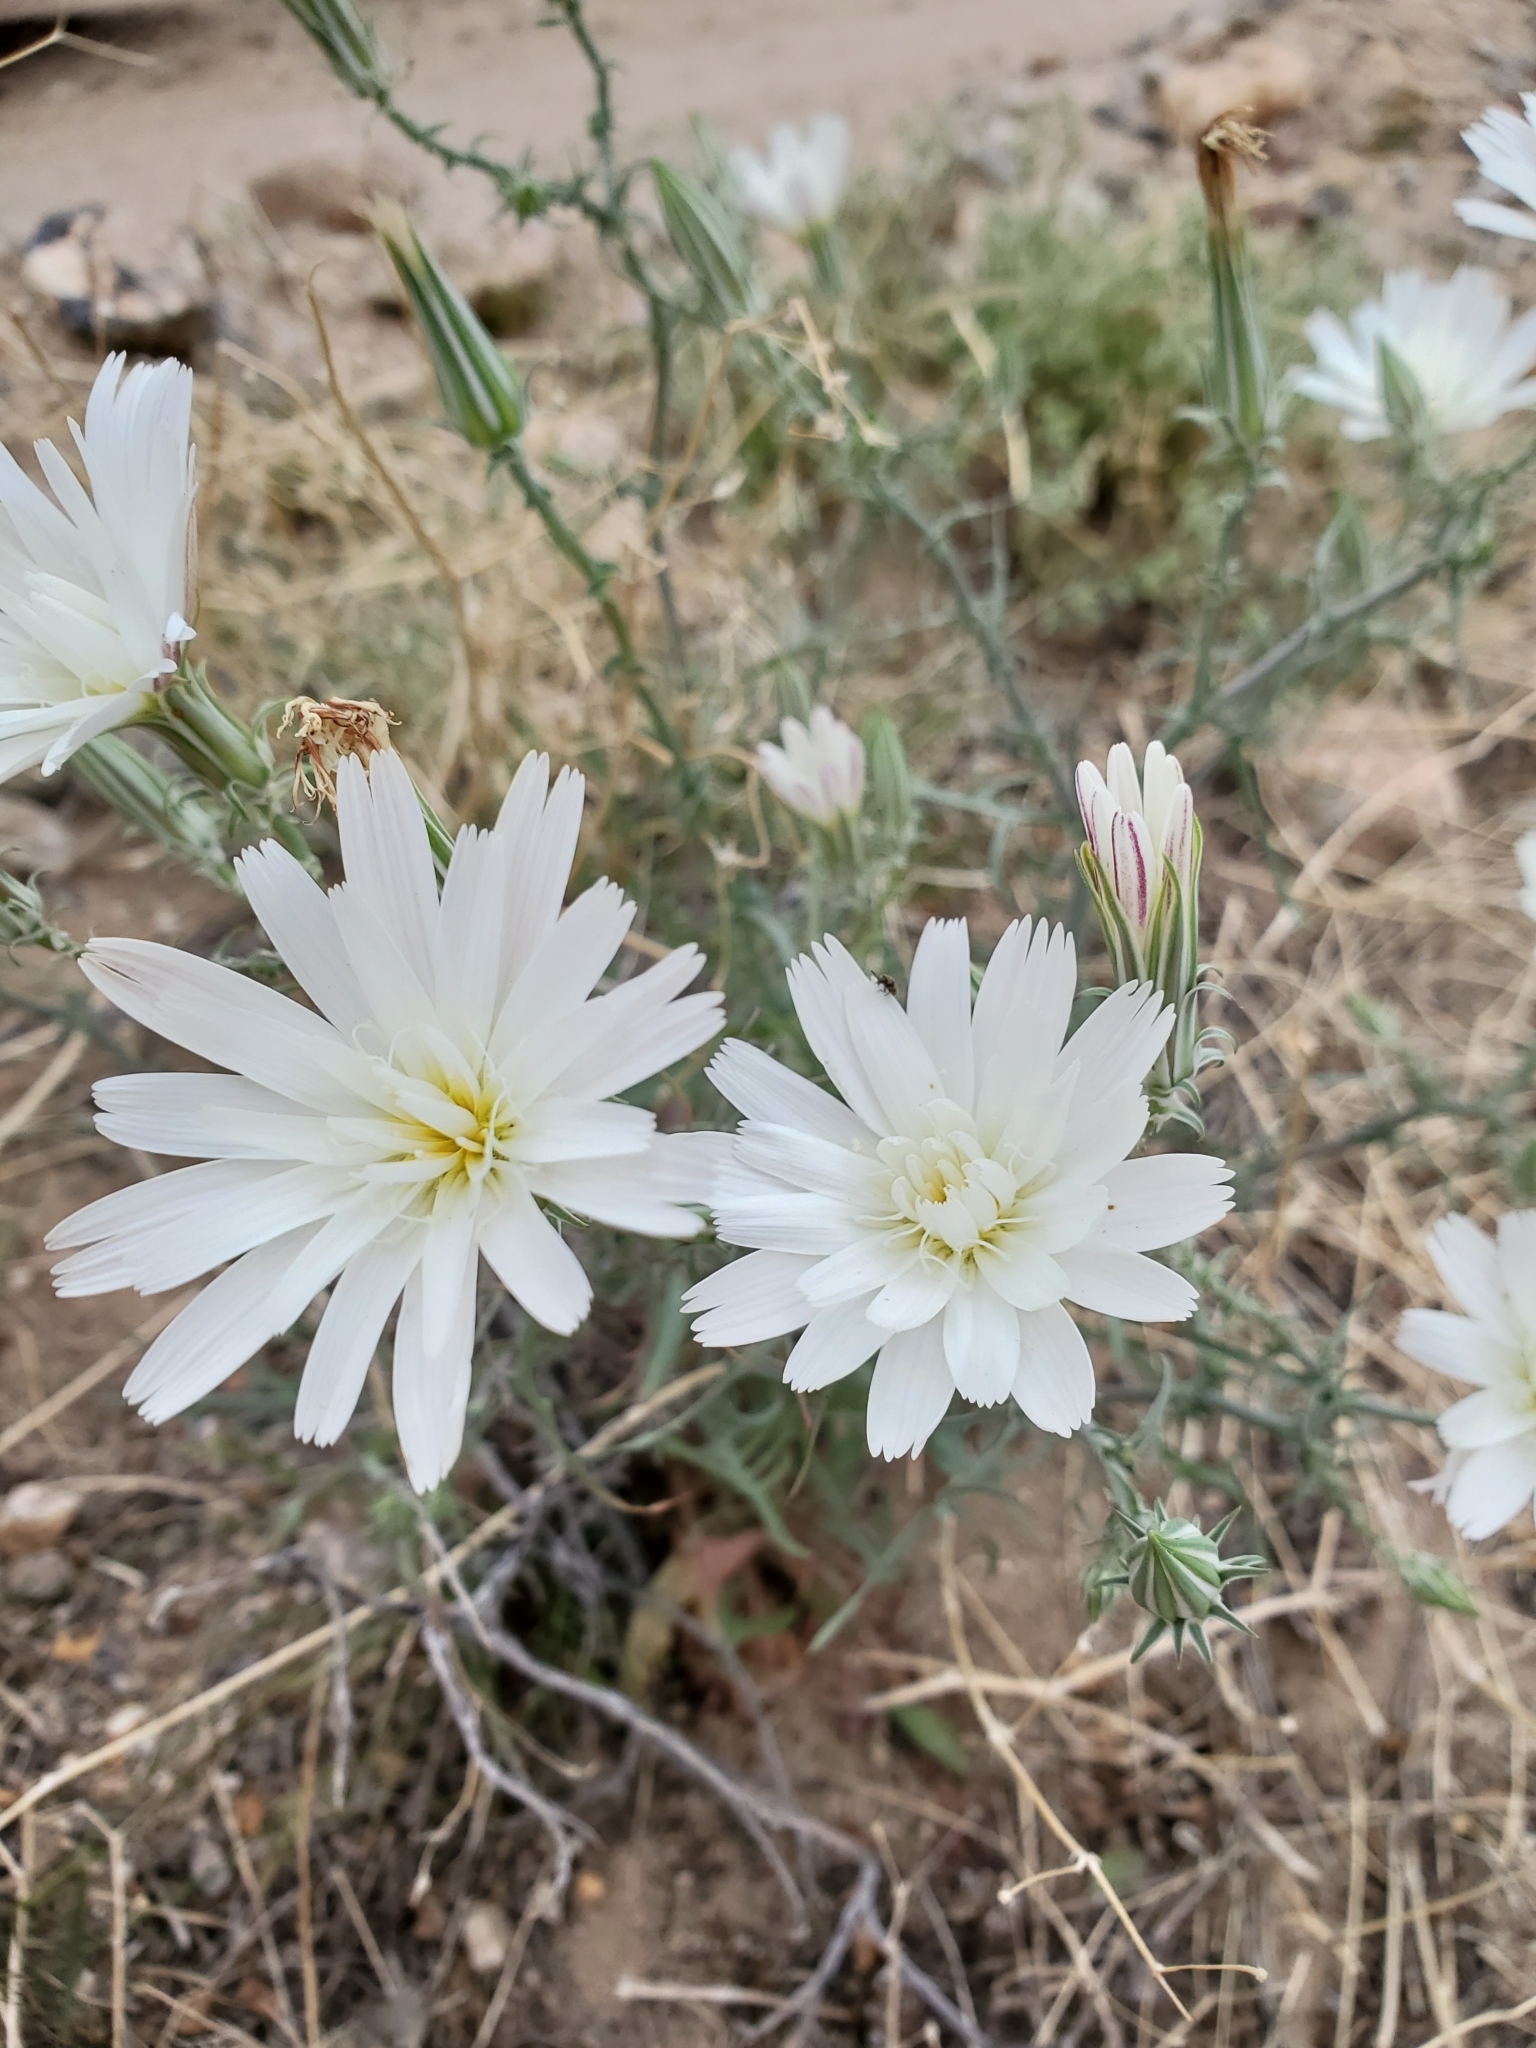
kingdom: Plantae
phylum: Tracheophyta
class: Magnoliopsida
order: Asterales
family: Asteraceae
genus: Rafinesquia
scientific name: Rafinesquia neomexicana
